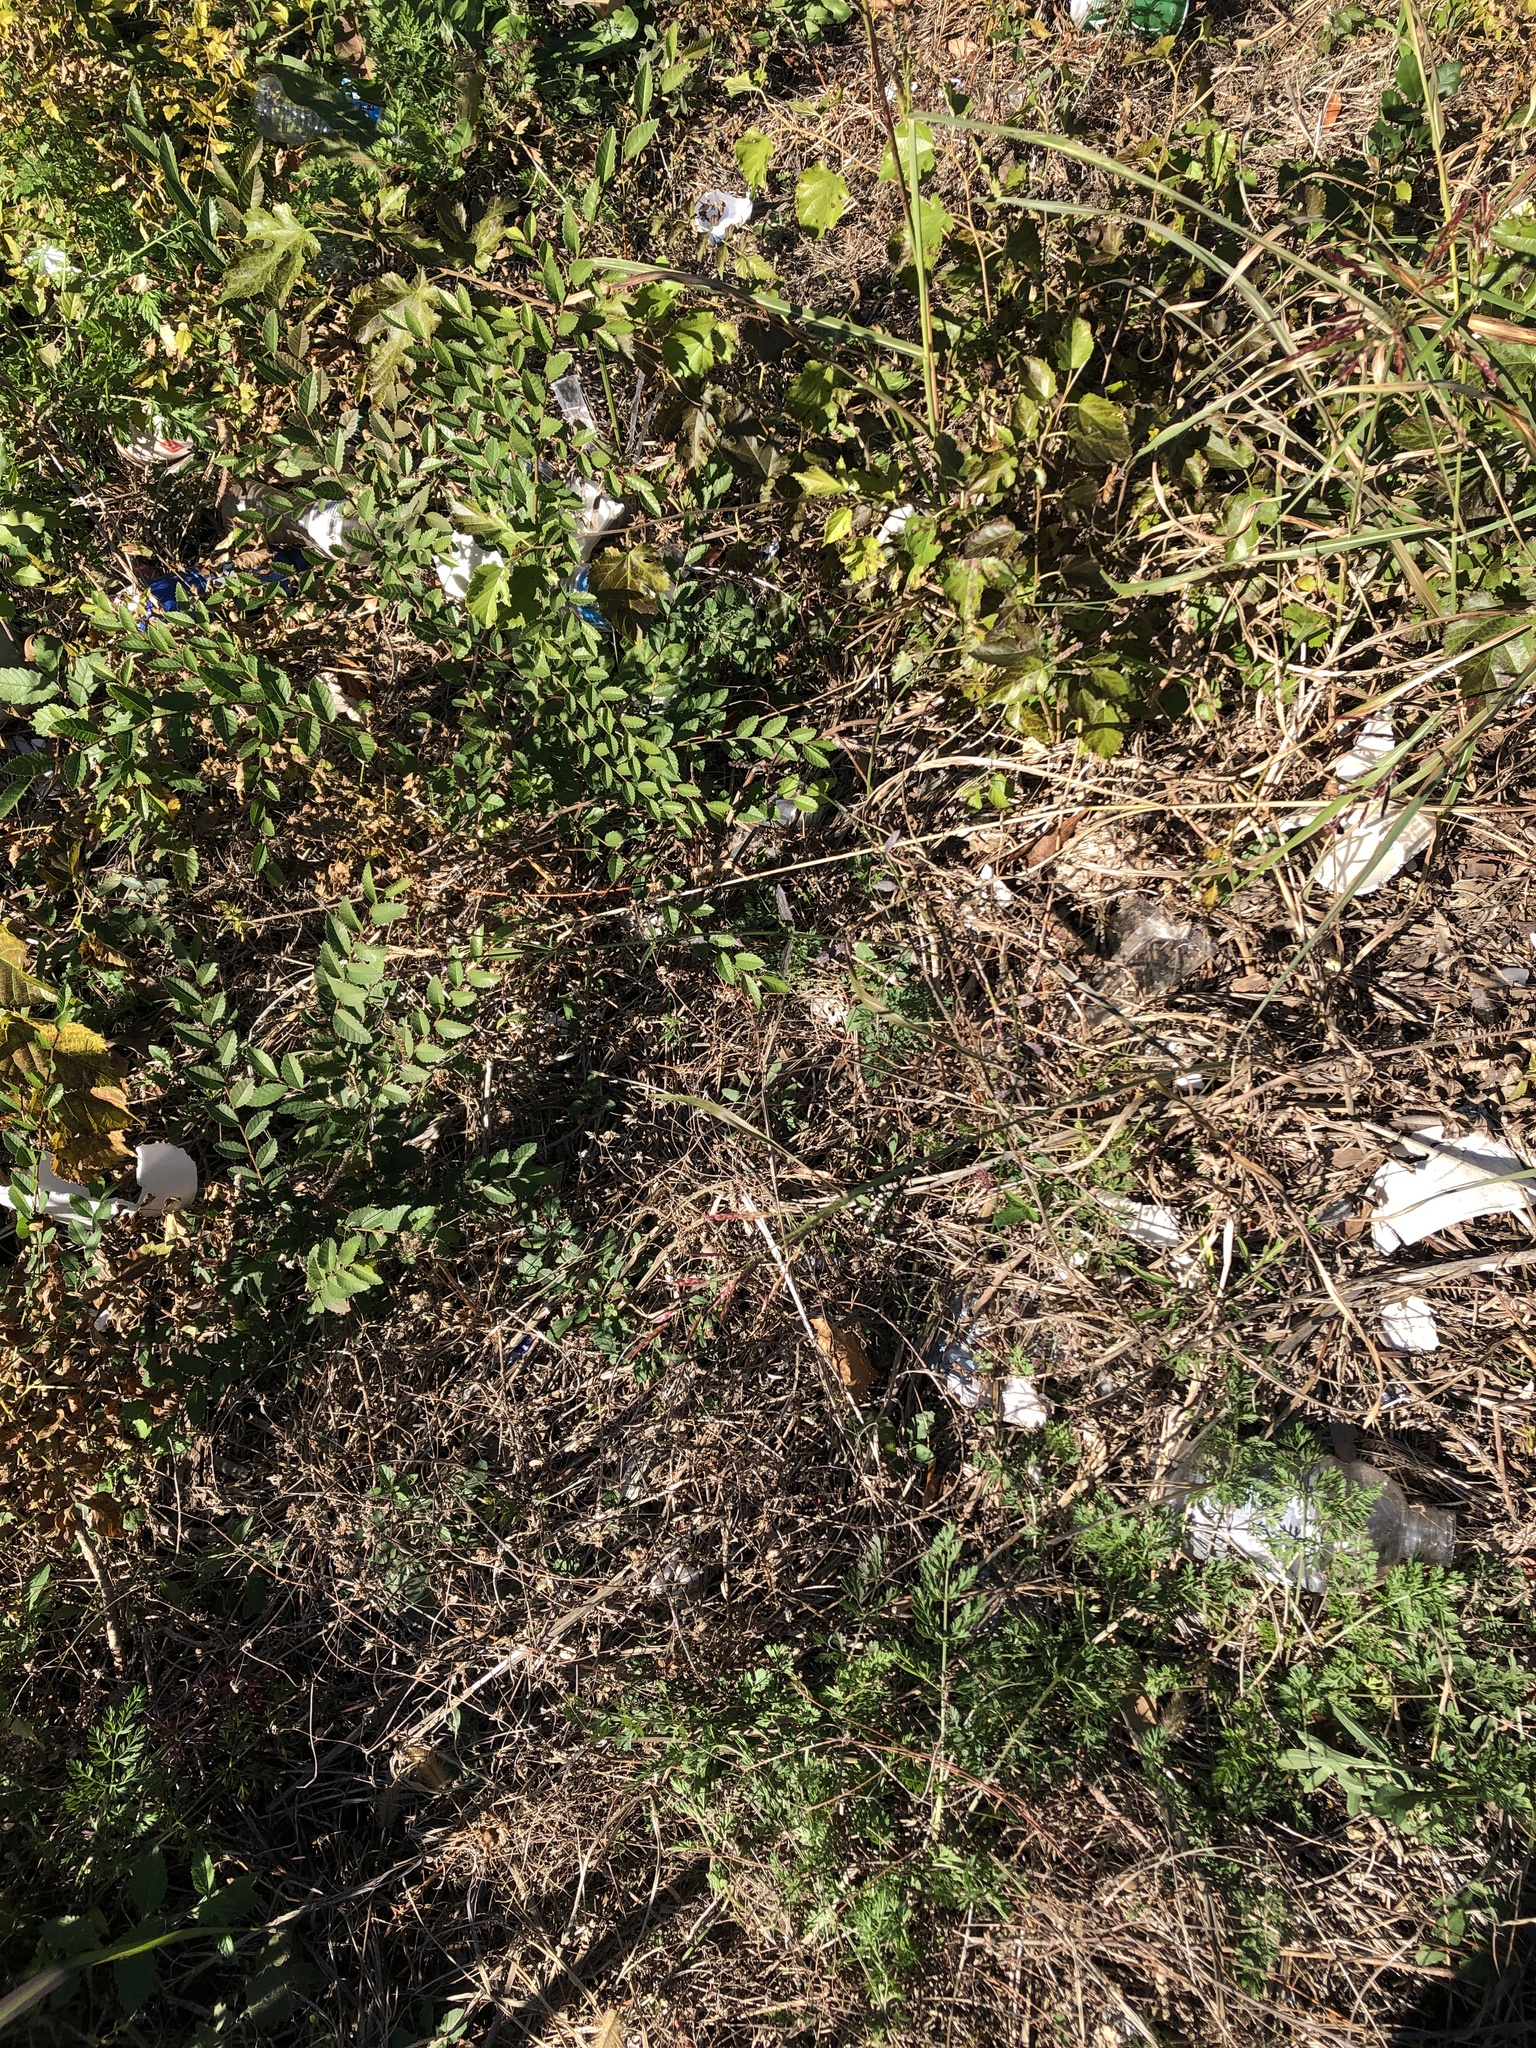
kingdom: Plantae
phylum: Tracheophyta
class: Magnoliopsida
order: Lamiales
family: Verbenaceae
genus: Verbena
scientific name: Verbena brasiliensis
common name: Brazilian vervain
